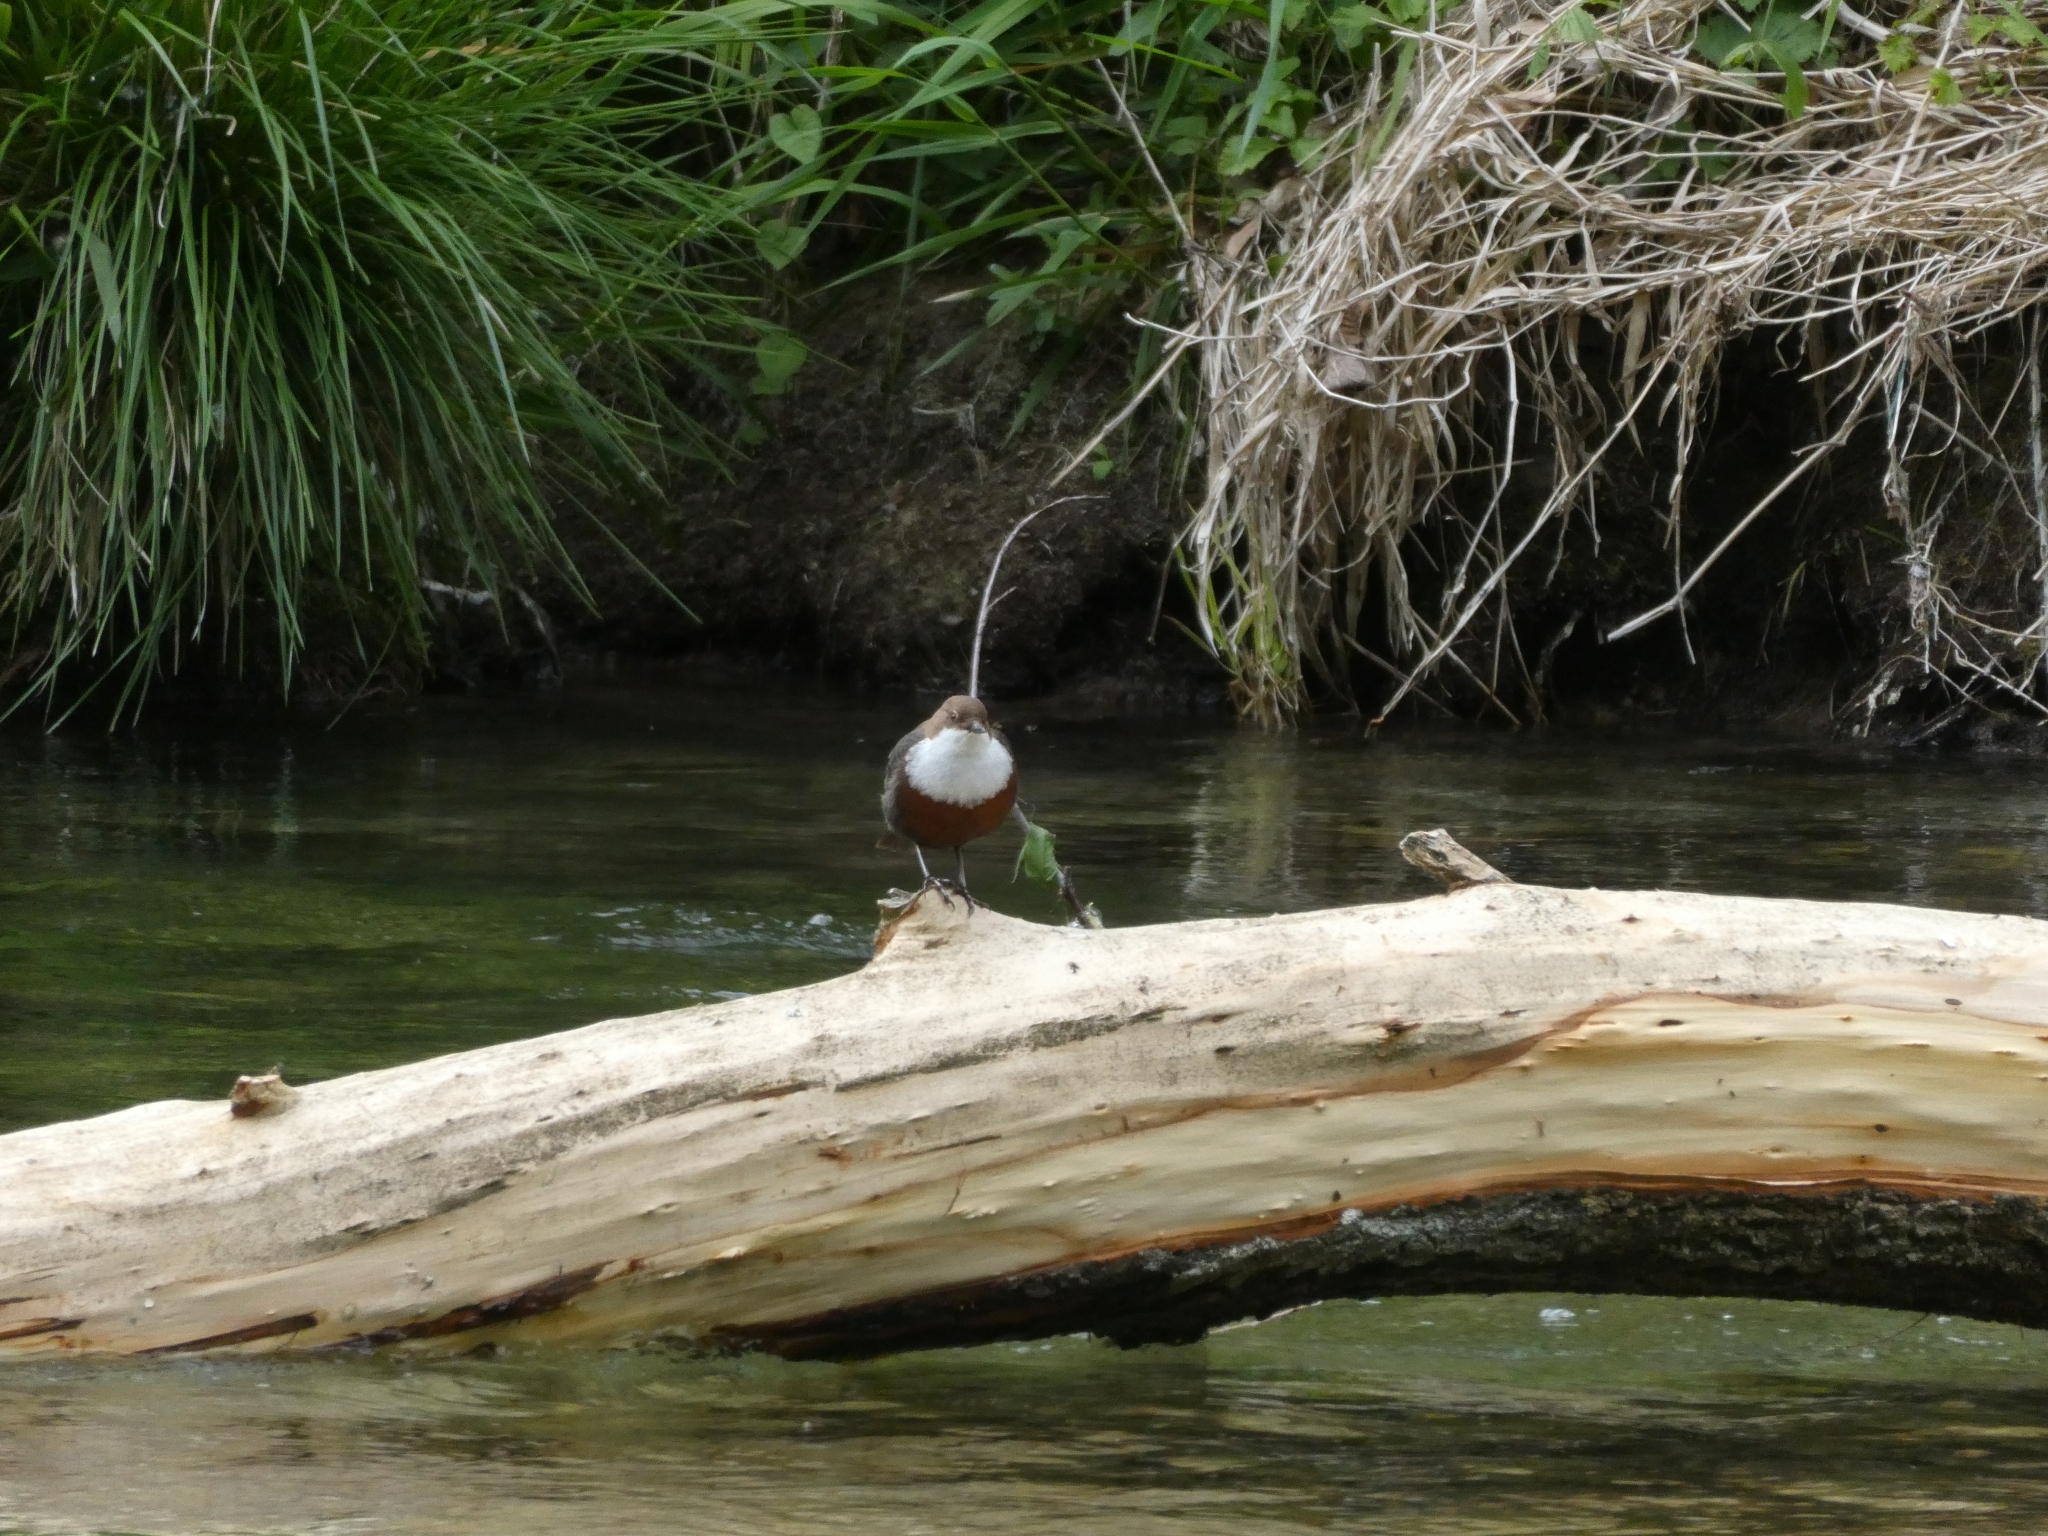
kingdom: Animalia
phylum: Chordata
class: Aves
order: Passeriformes
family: Cinclidae
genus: Cinclus
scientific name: Cinclus cinclus
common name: White-throated dipper
